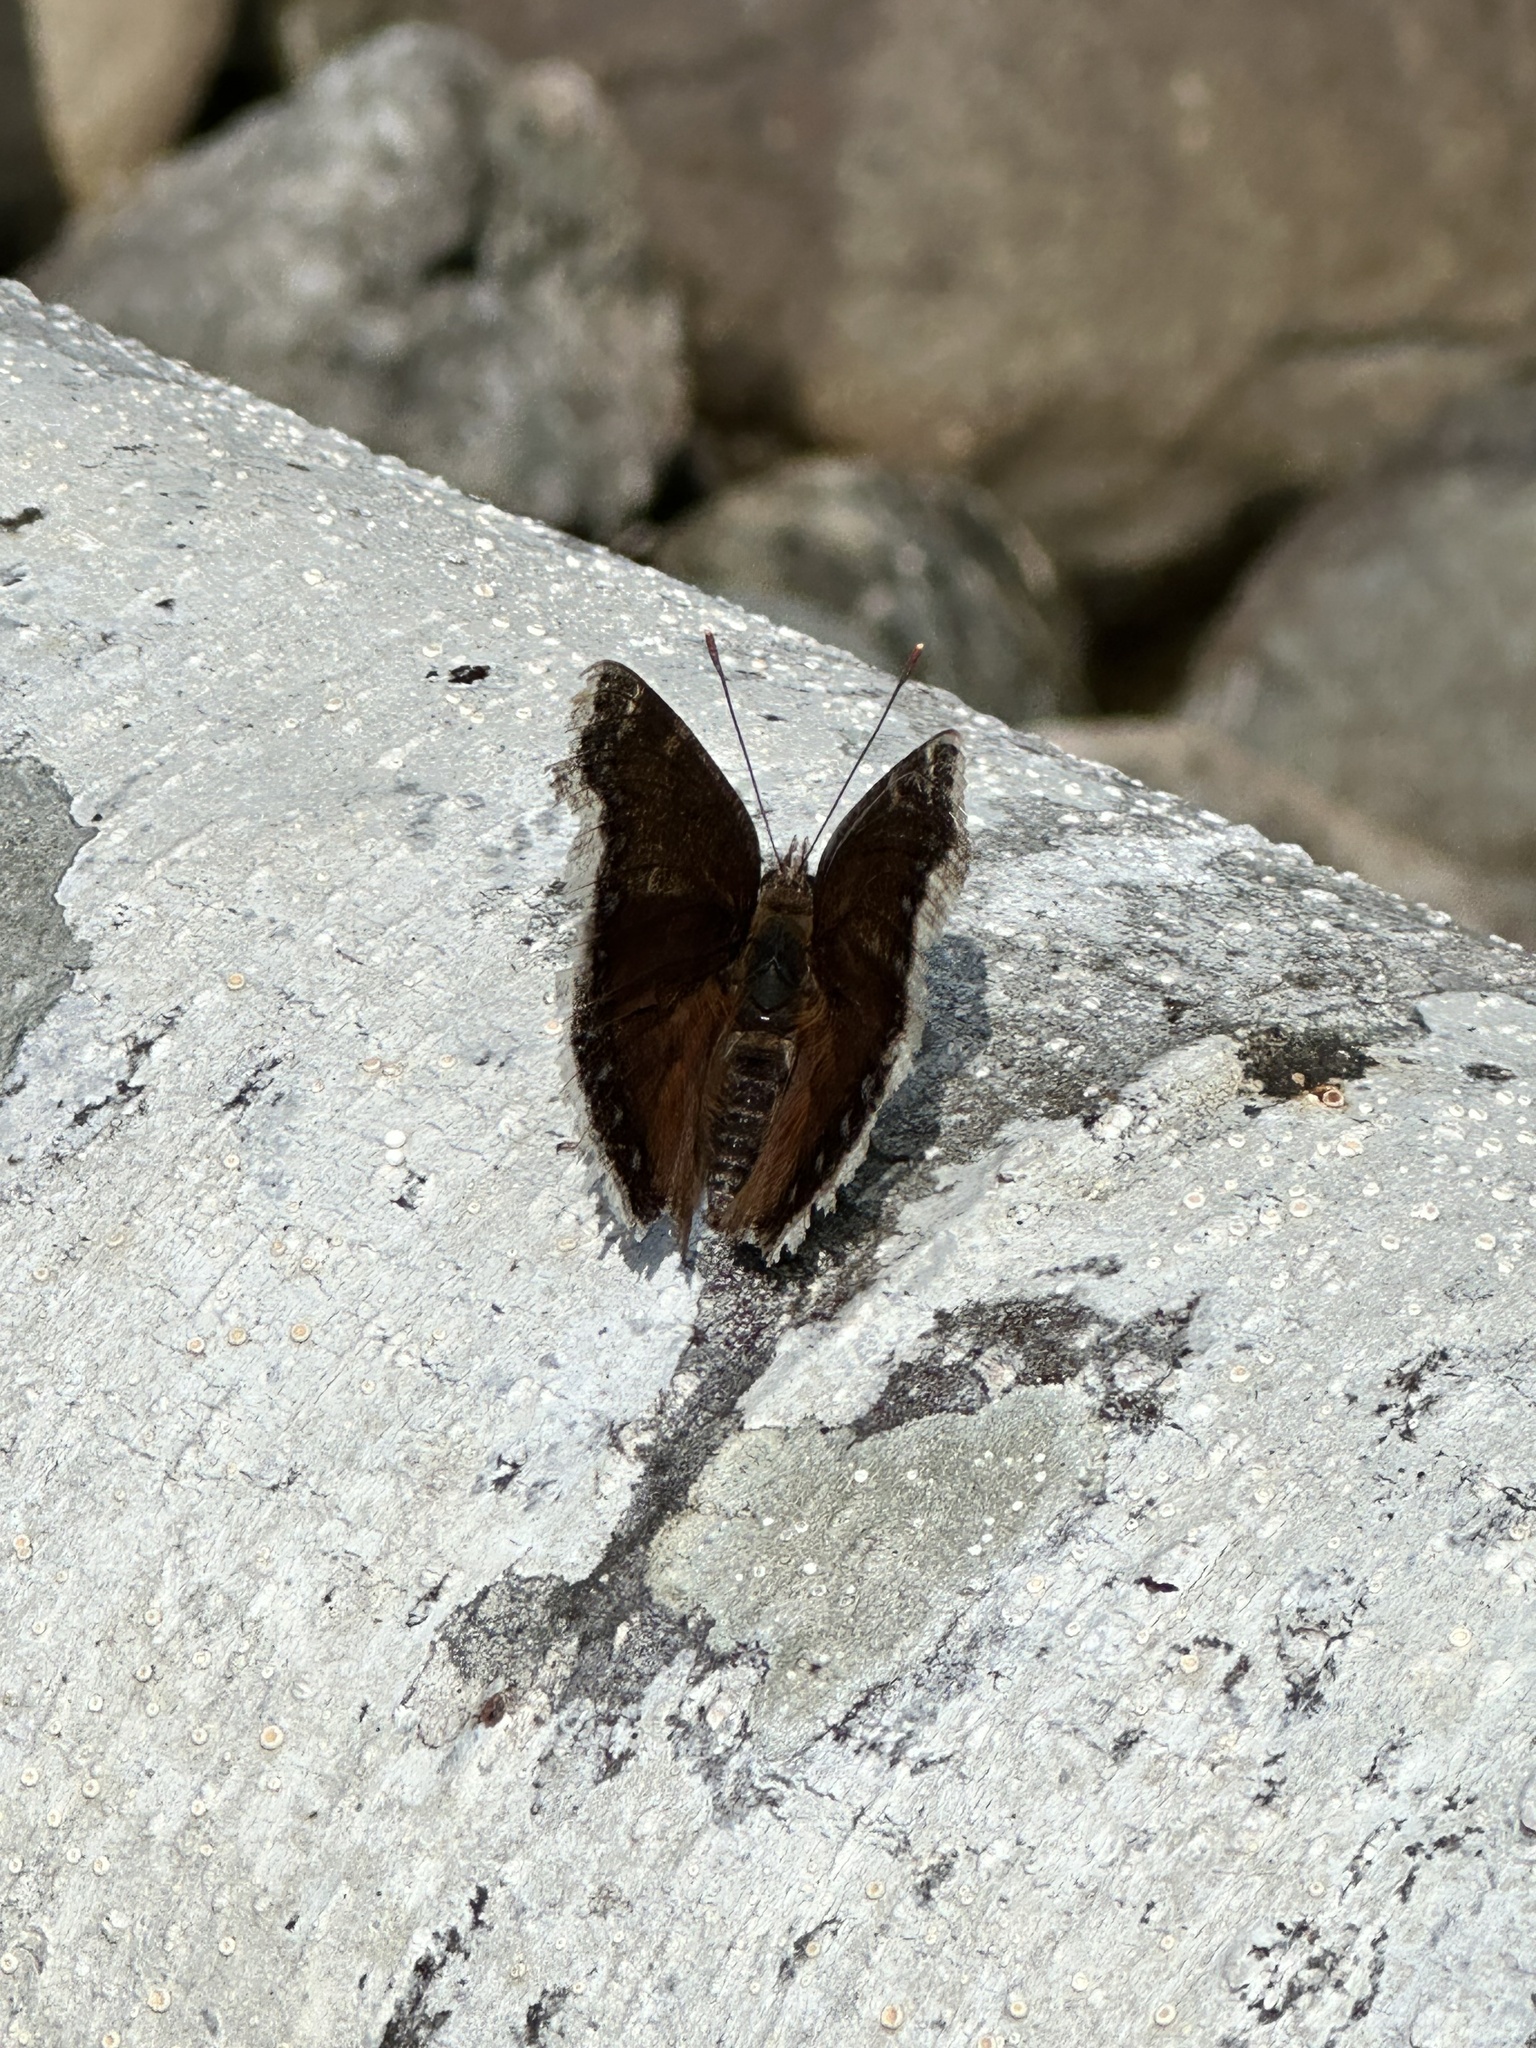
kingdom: Animalia
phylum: Arthropoda
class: Insecta
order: Lepidoptera
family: Nymphalidae
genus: Nymphalis
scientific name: Nymphalis antiopa
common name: Camberwell beauty
